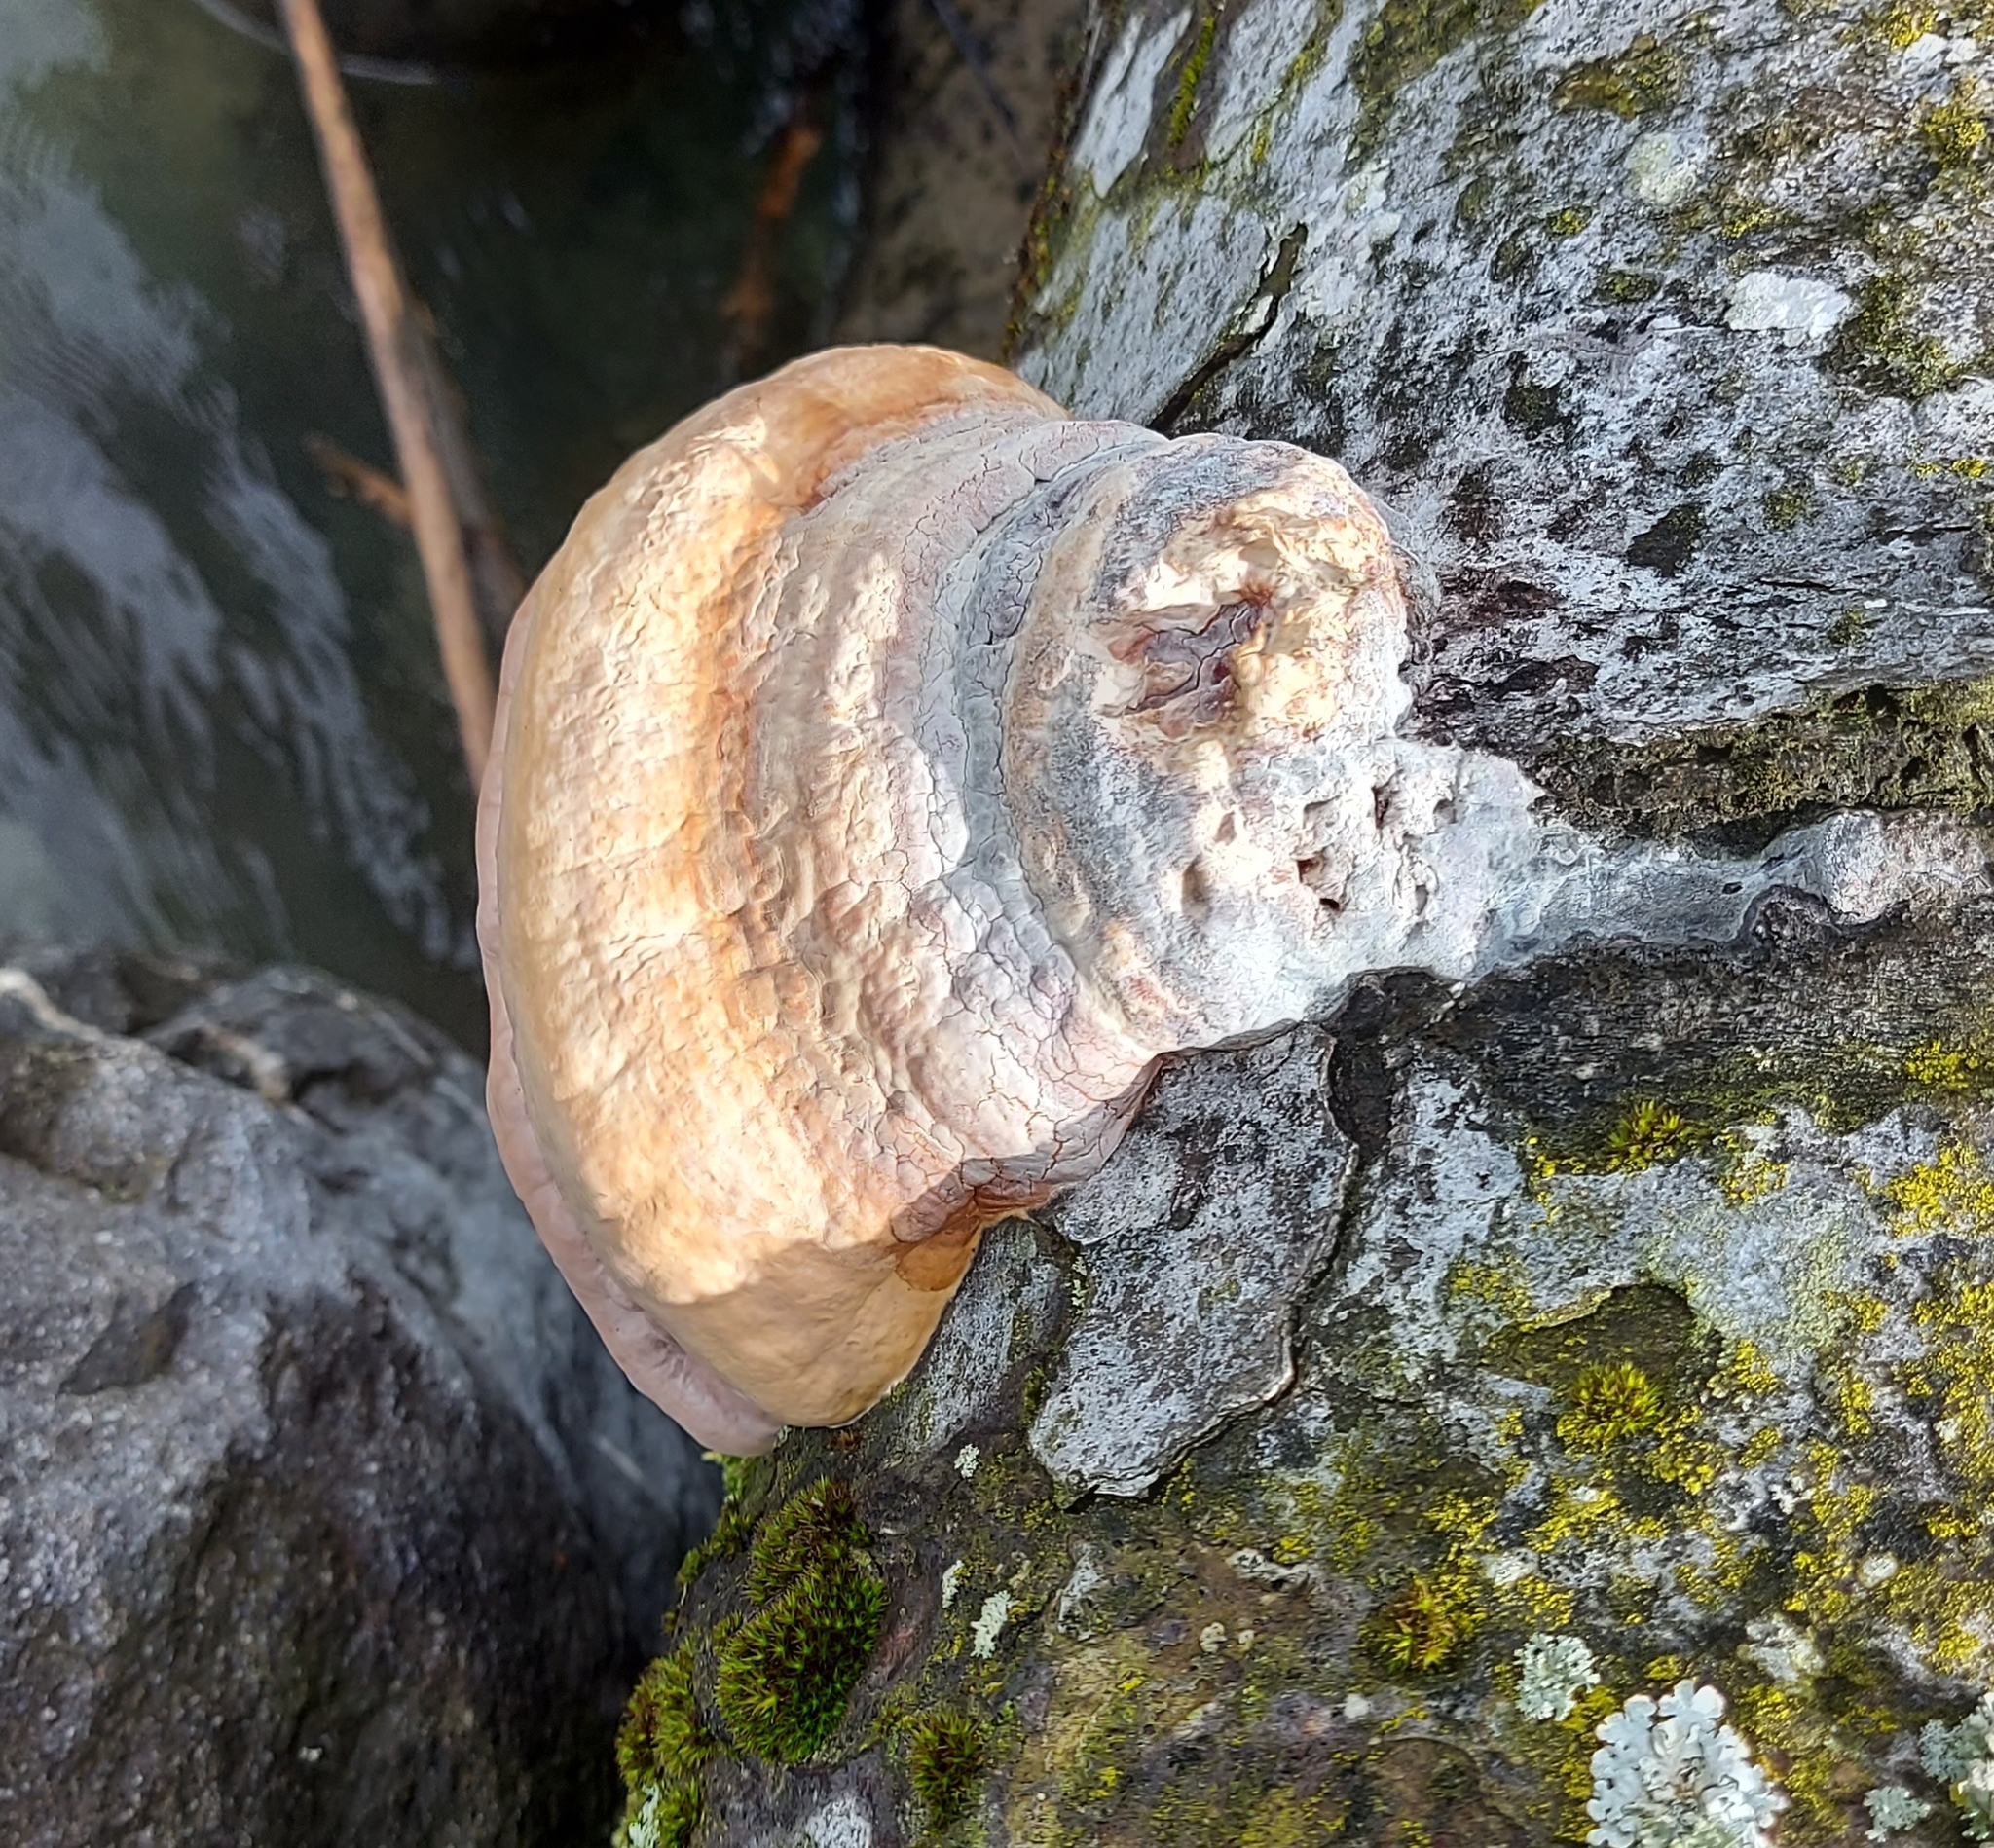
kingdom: Fungi
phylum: Basidiomycota
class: Agaricomycetes
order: Polyporales
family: Polyporaceae
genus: Fomes
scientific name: Fomes fomentarius
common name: Hoof fungus
